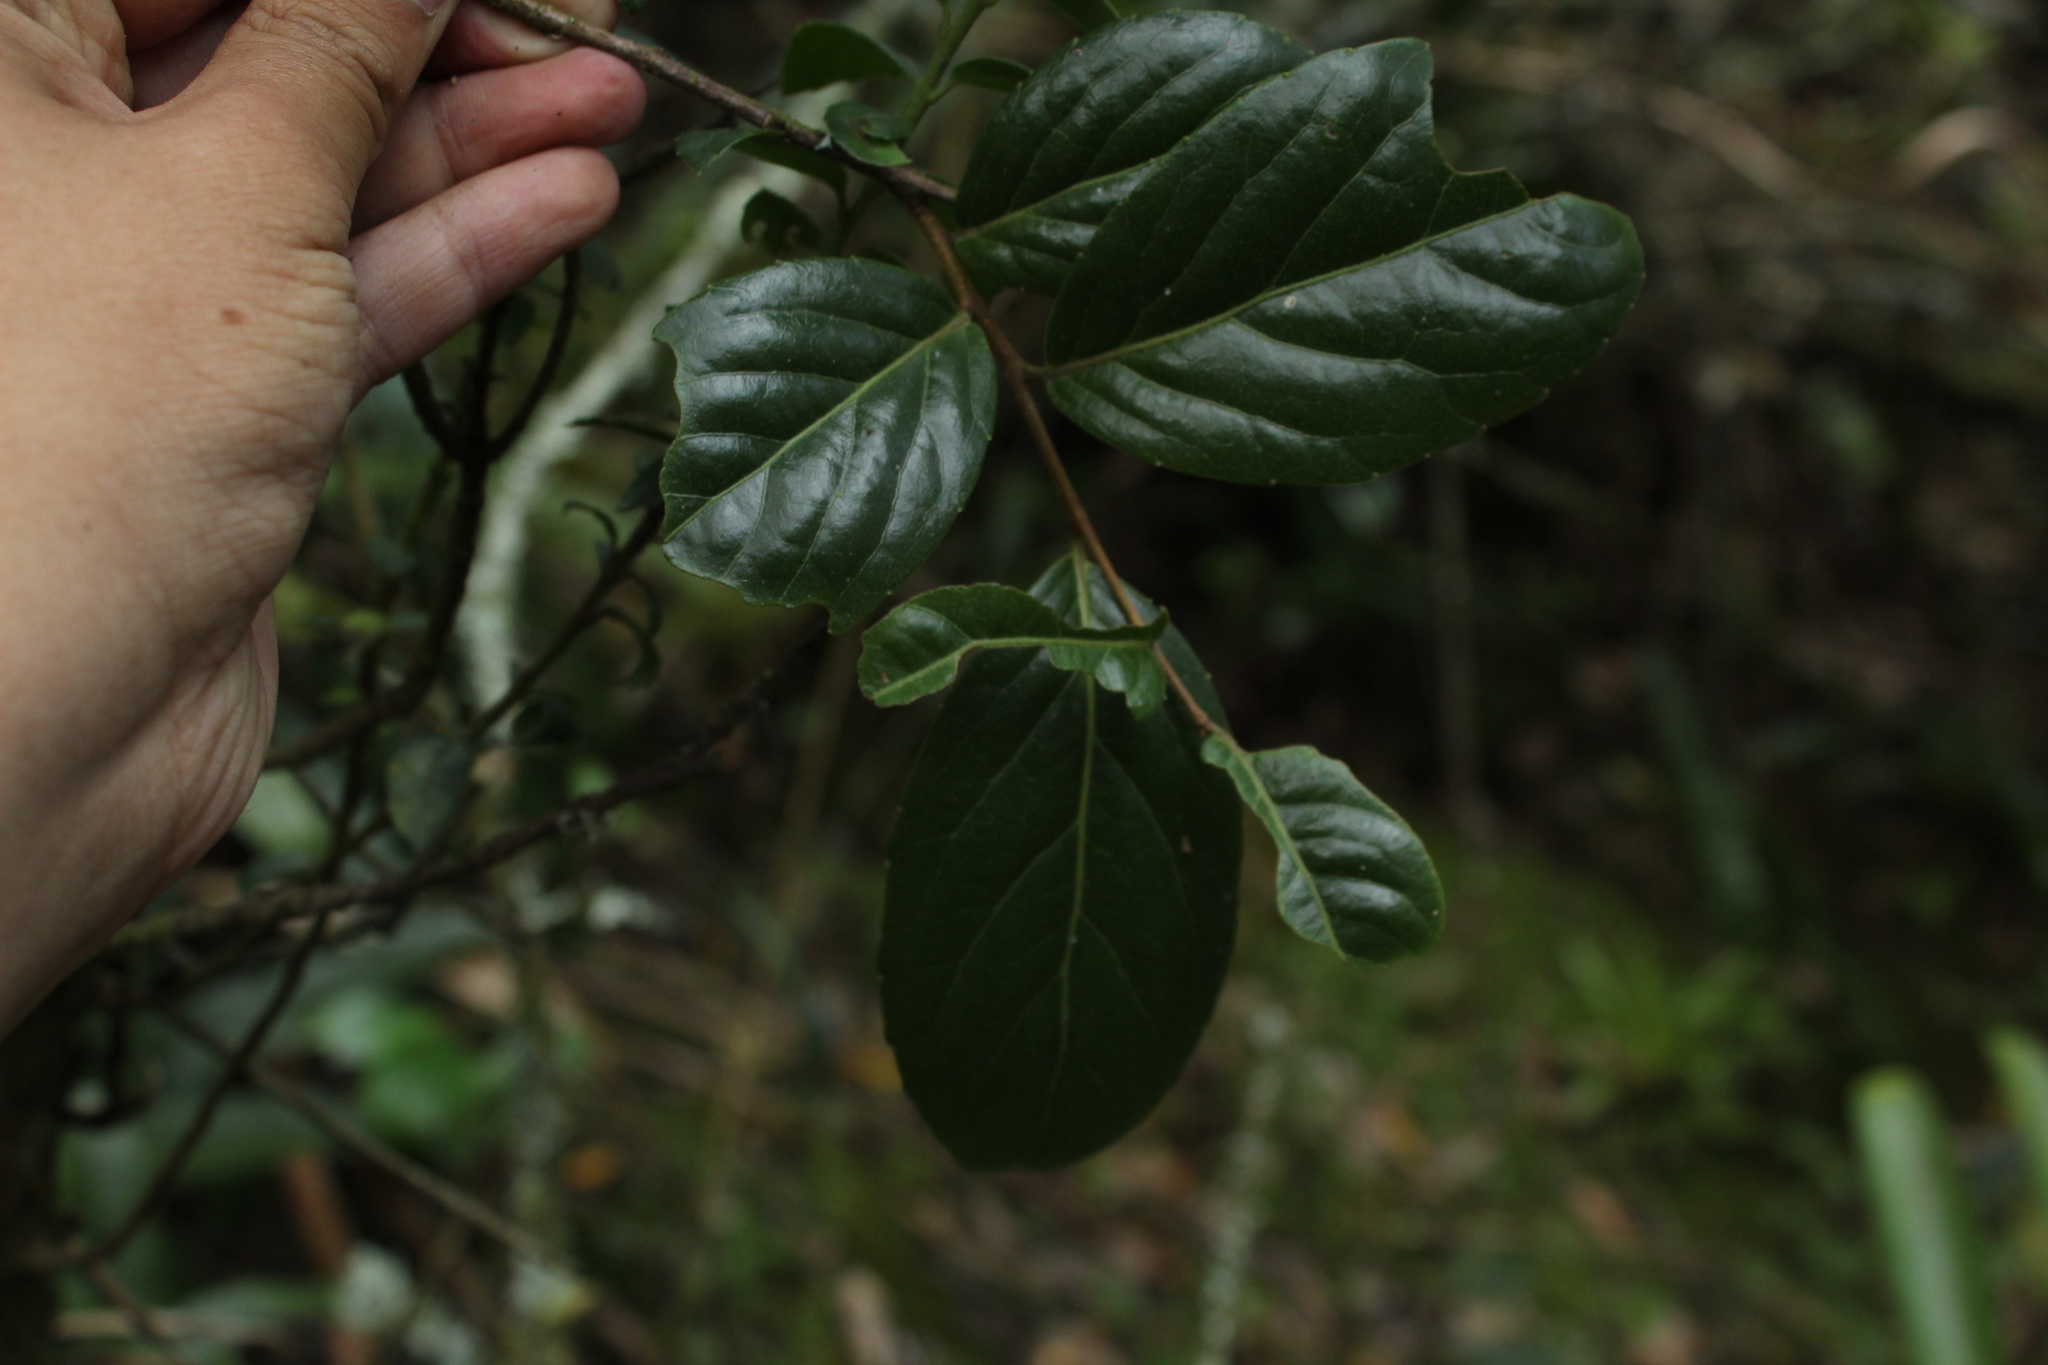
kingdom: Plantae
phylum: Tracheophyta
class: Magnoliopsida
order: Malpighiales
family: Salicaceae
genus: Xylosma
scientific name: Xylosma spiculifera
